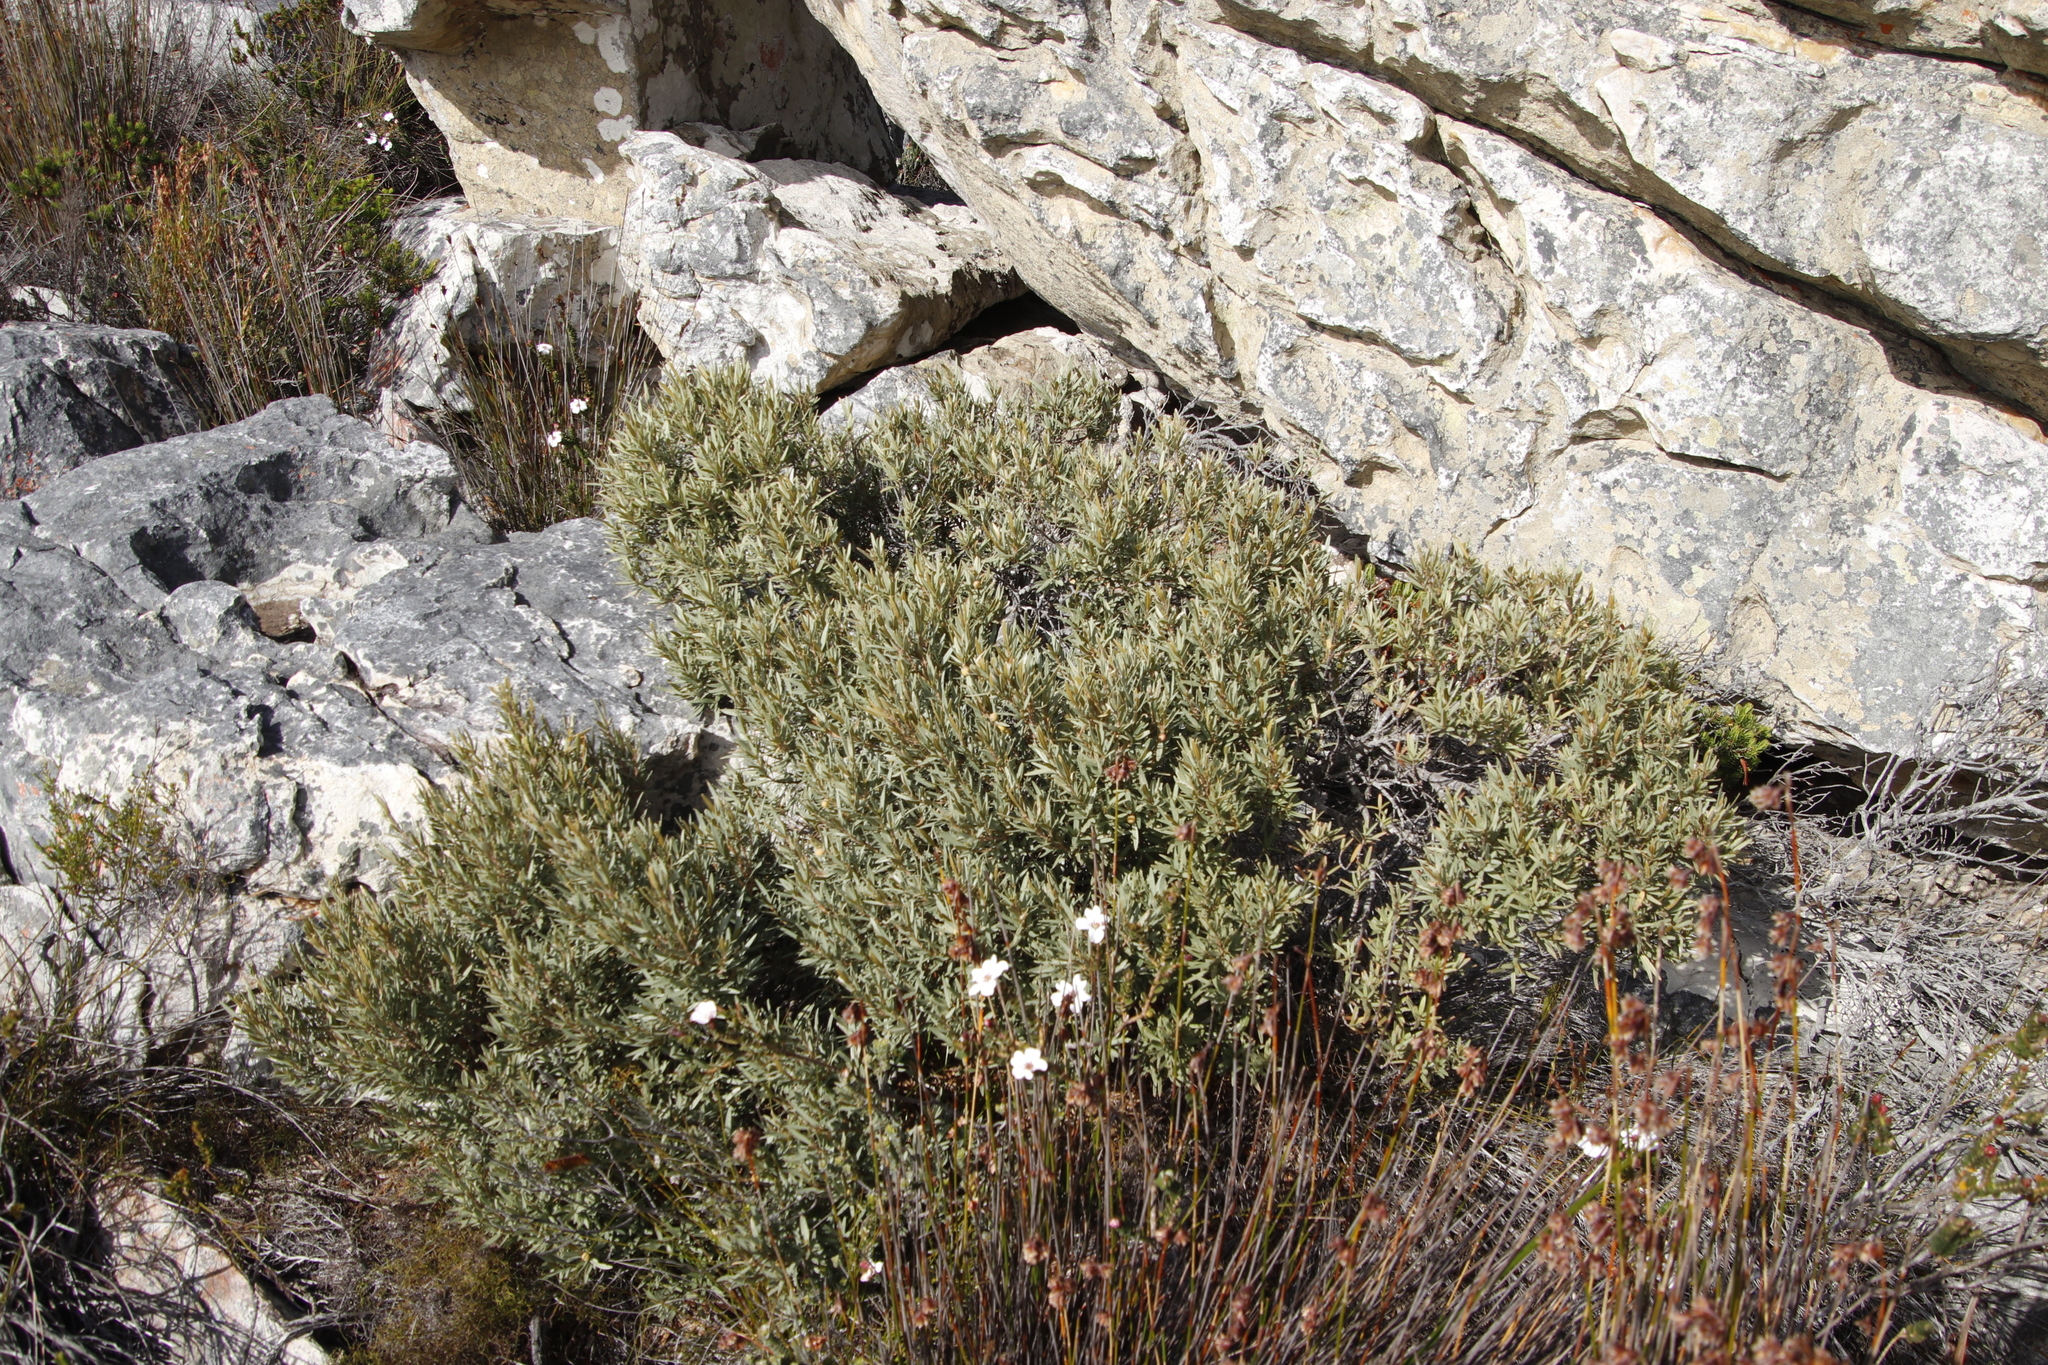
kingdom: Plantae
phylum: Tracheophyta
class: Magnoliopsida
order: Cornales
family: Grubbiaceae
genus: Grubbia
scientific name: Grubbia tomentosa
